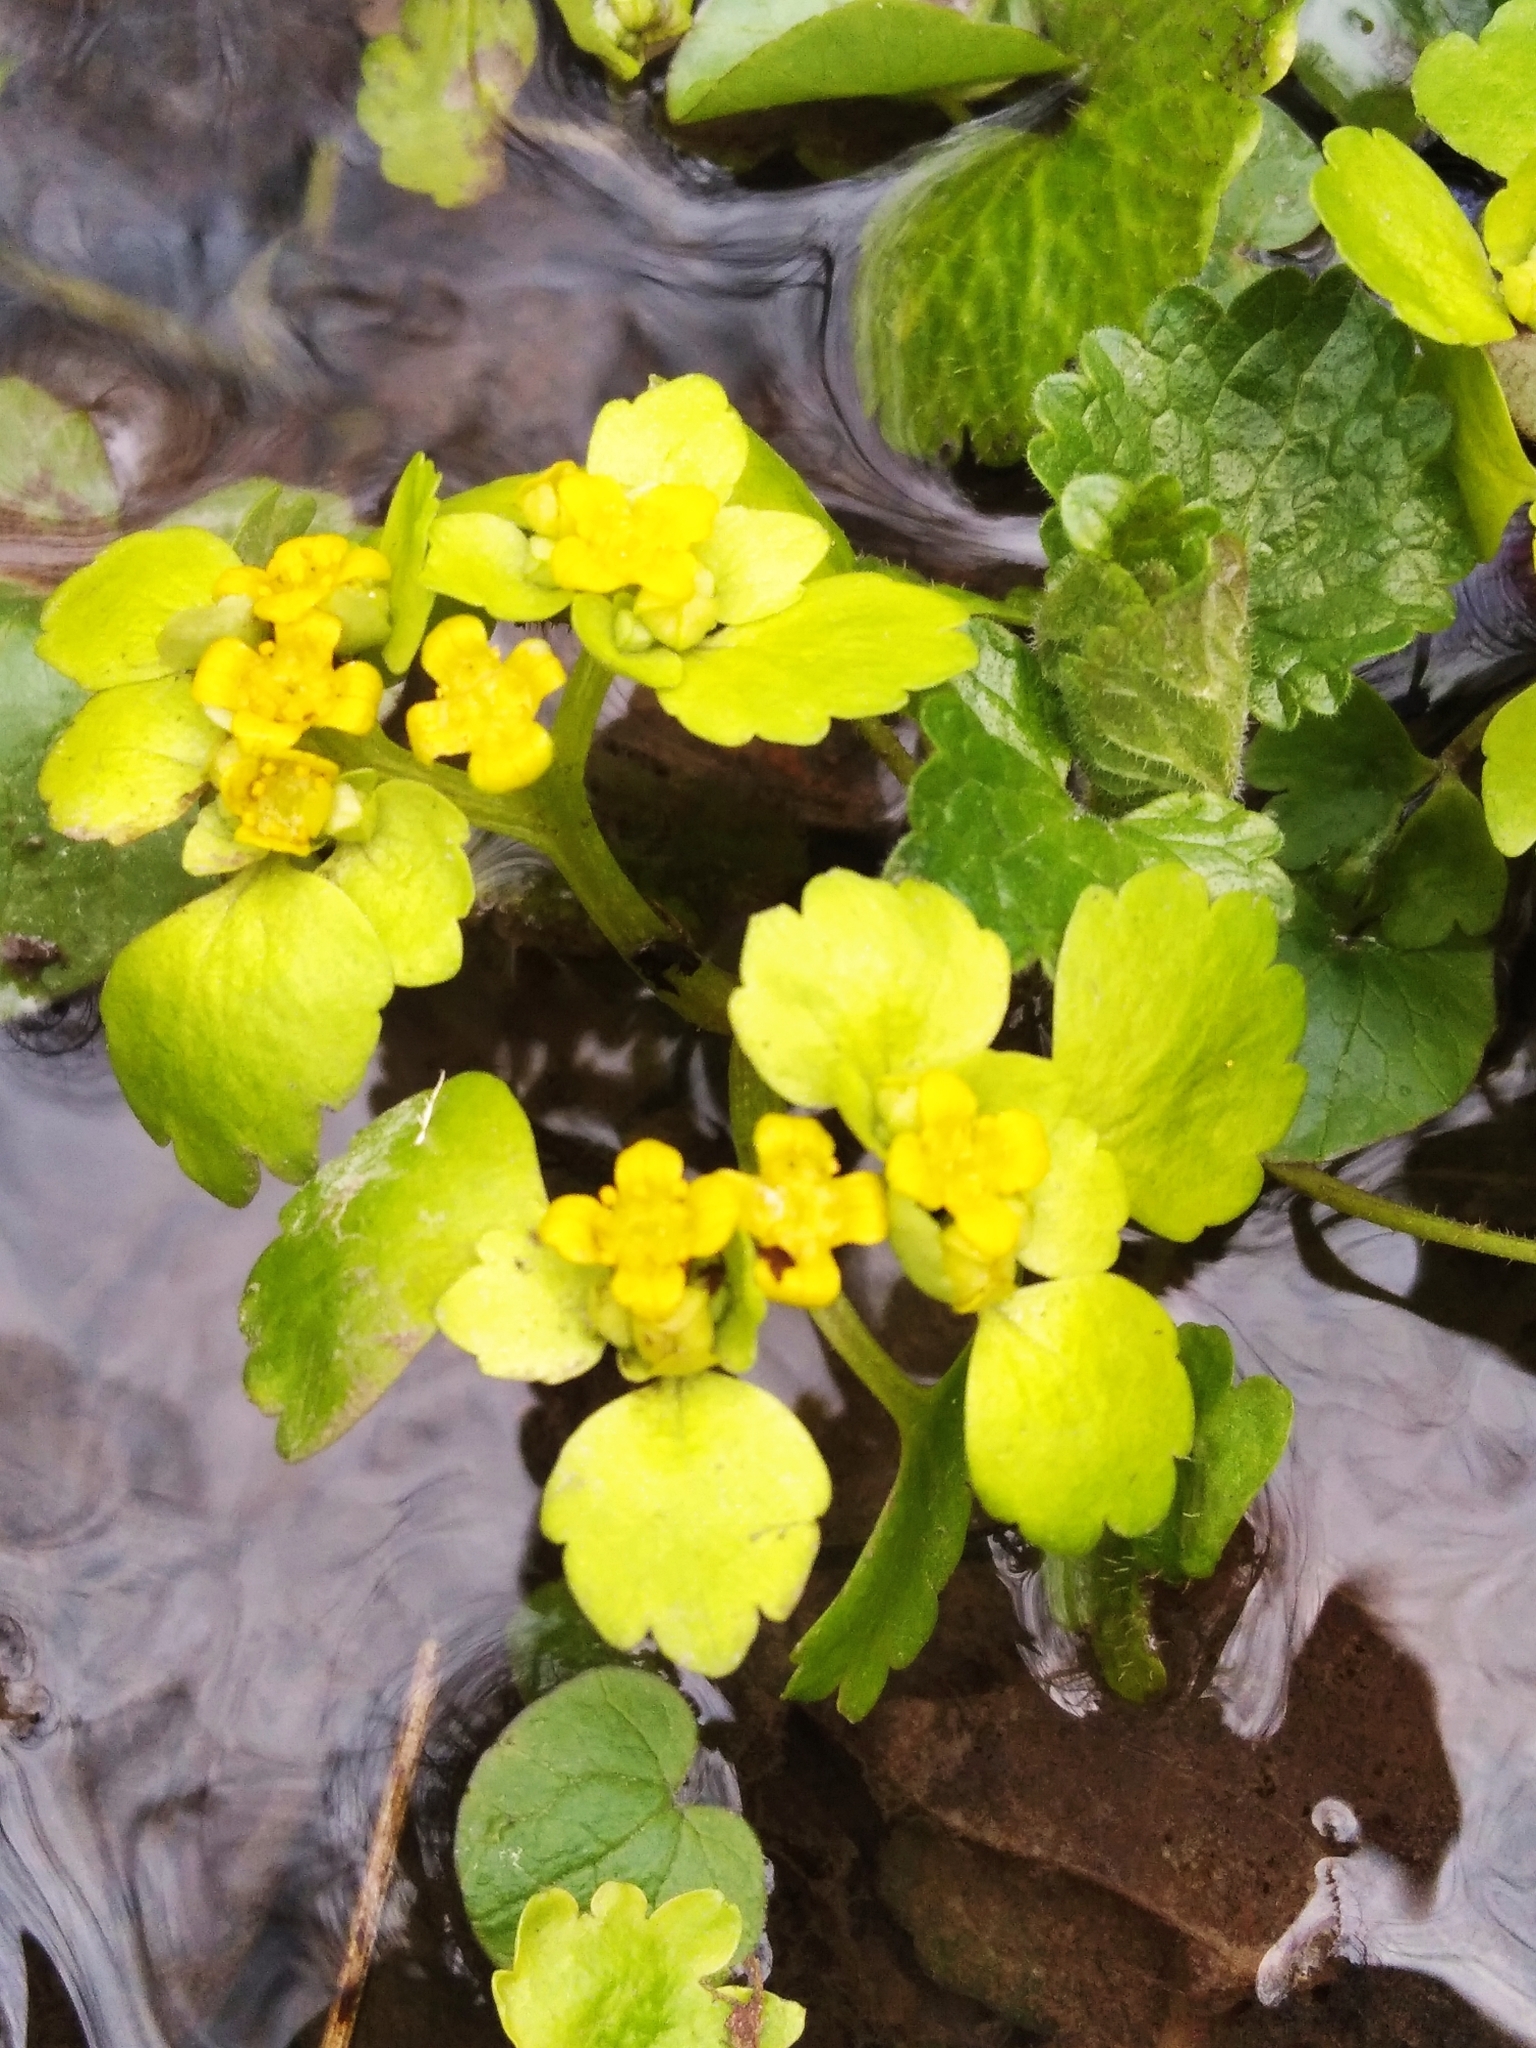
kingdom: Plantae
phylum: Tracheophyta
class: Magnoliopsida
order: Saxifragales
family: Saxifragaceae
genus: Chrysosplenium
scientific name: Chrysosplenium alternifolium
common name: Alternate-leaved golden-saxifrage
